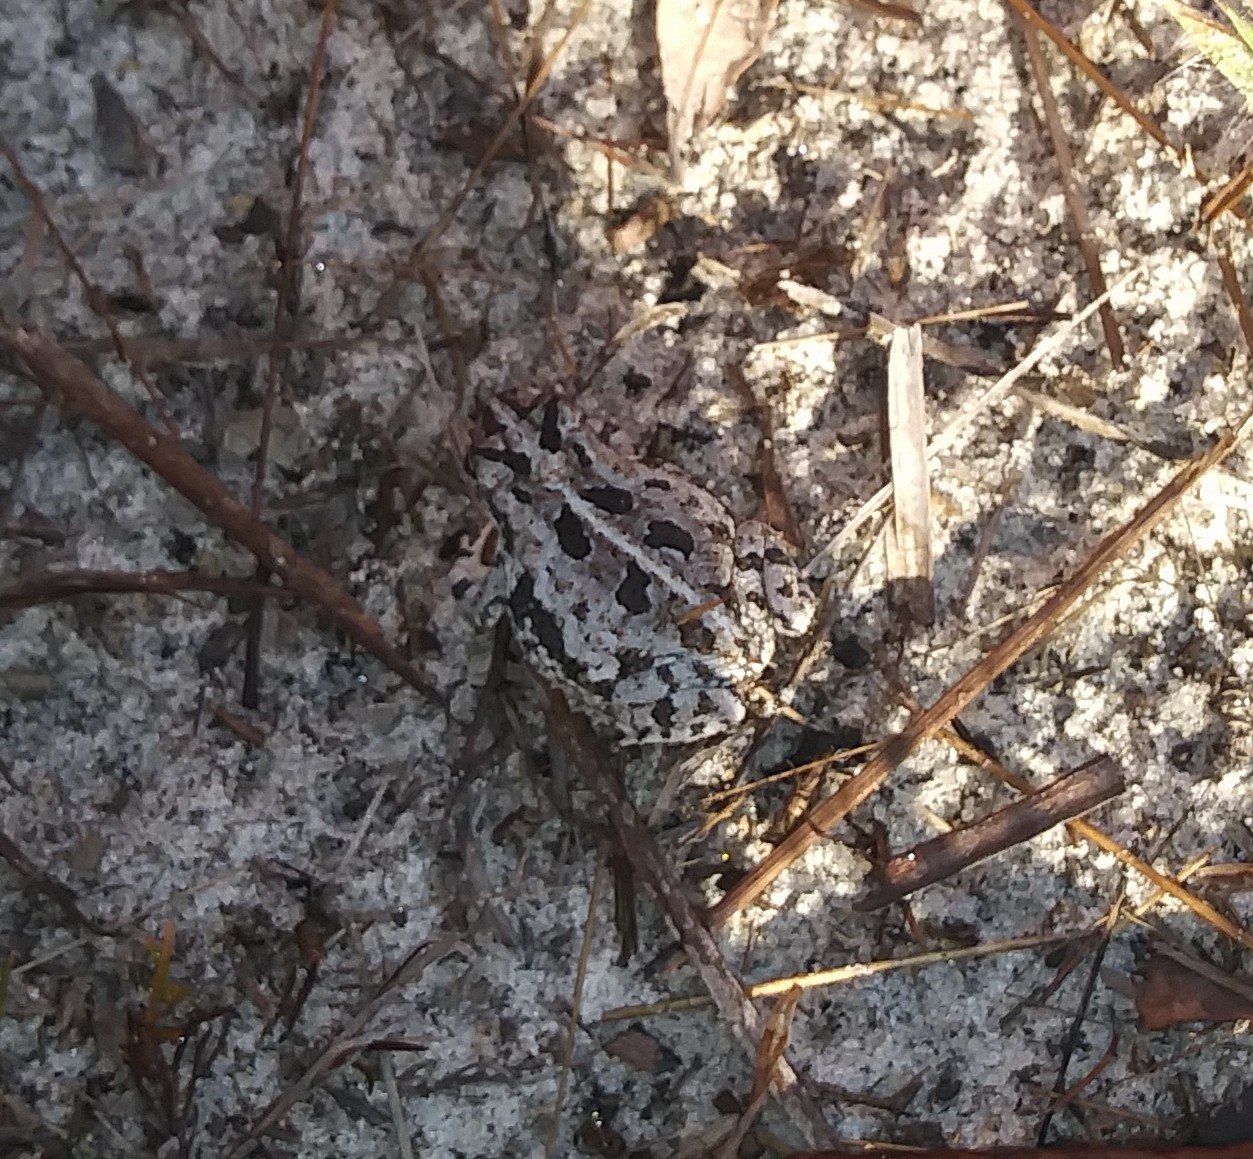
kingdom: Animalia
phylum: Chordata
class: Amphibia
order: Anura
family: Bufonidae
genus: Anaxyrus
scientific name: Anaxyrus quercicus
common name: Oak toad
